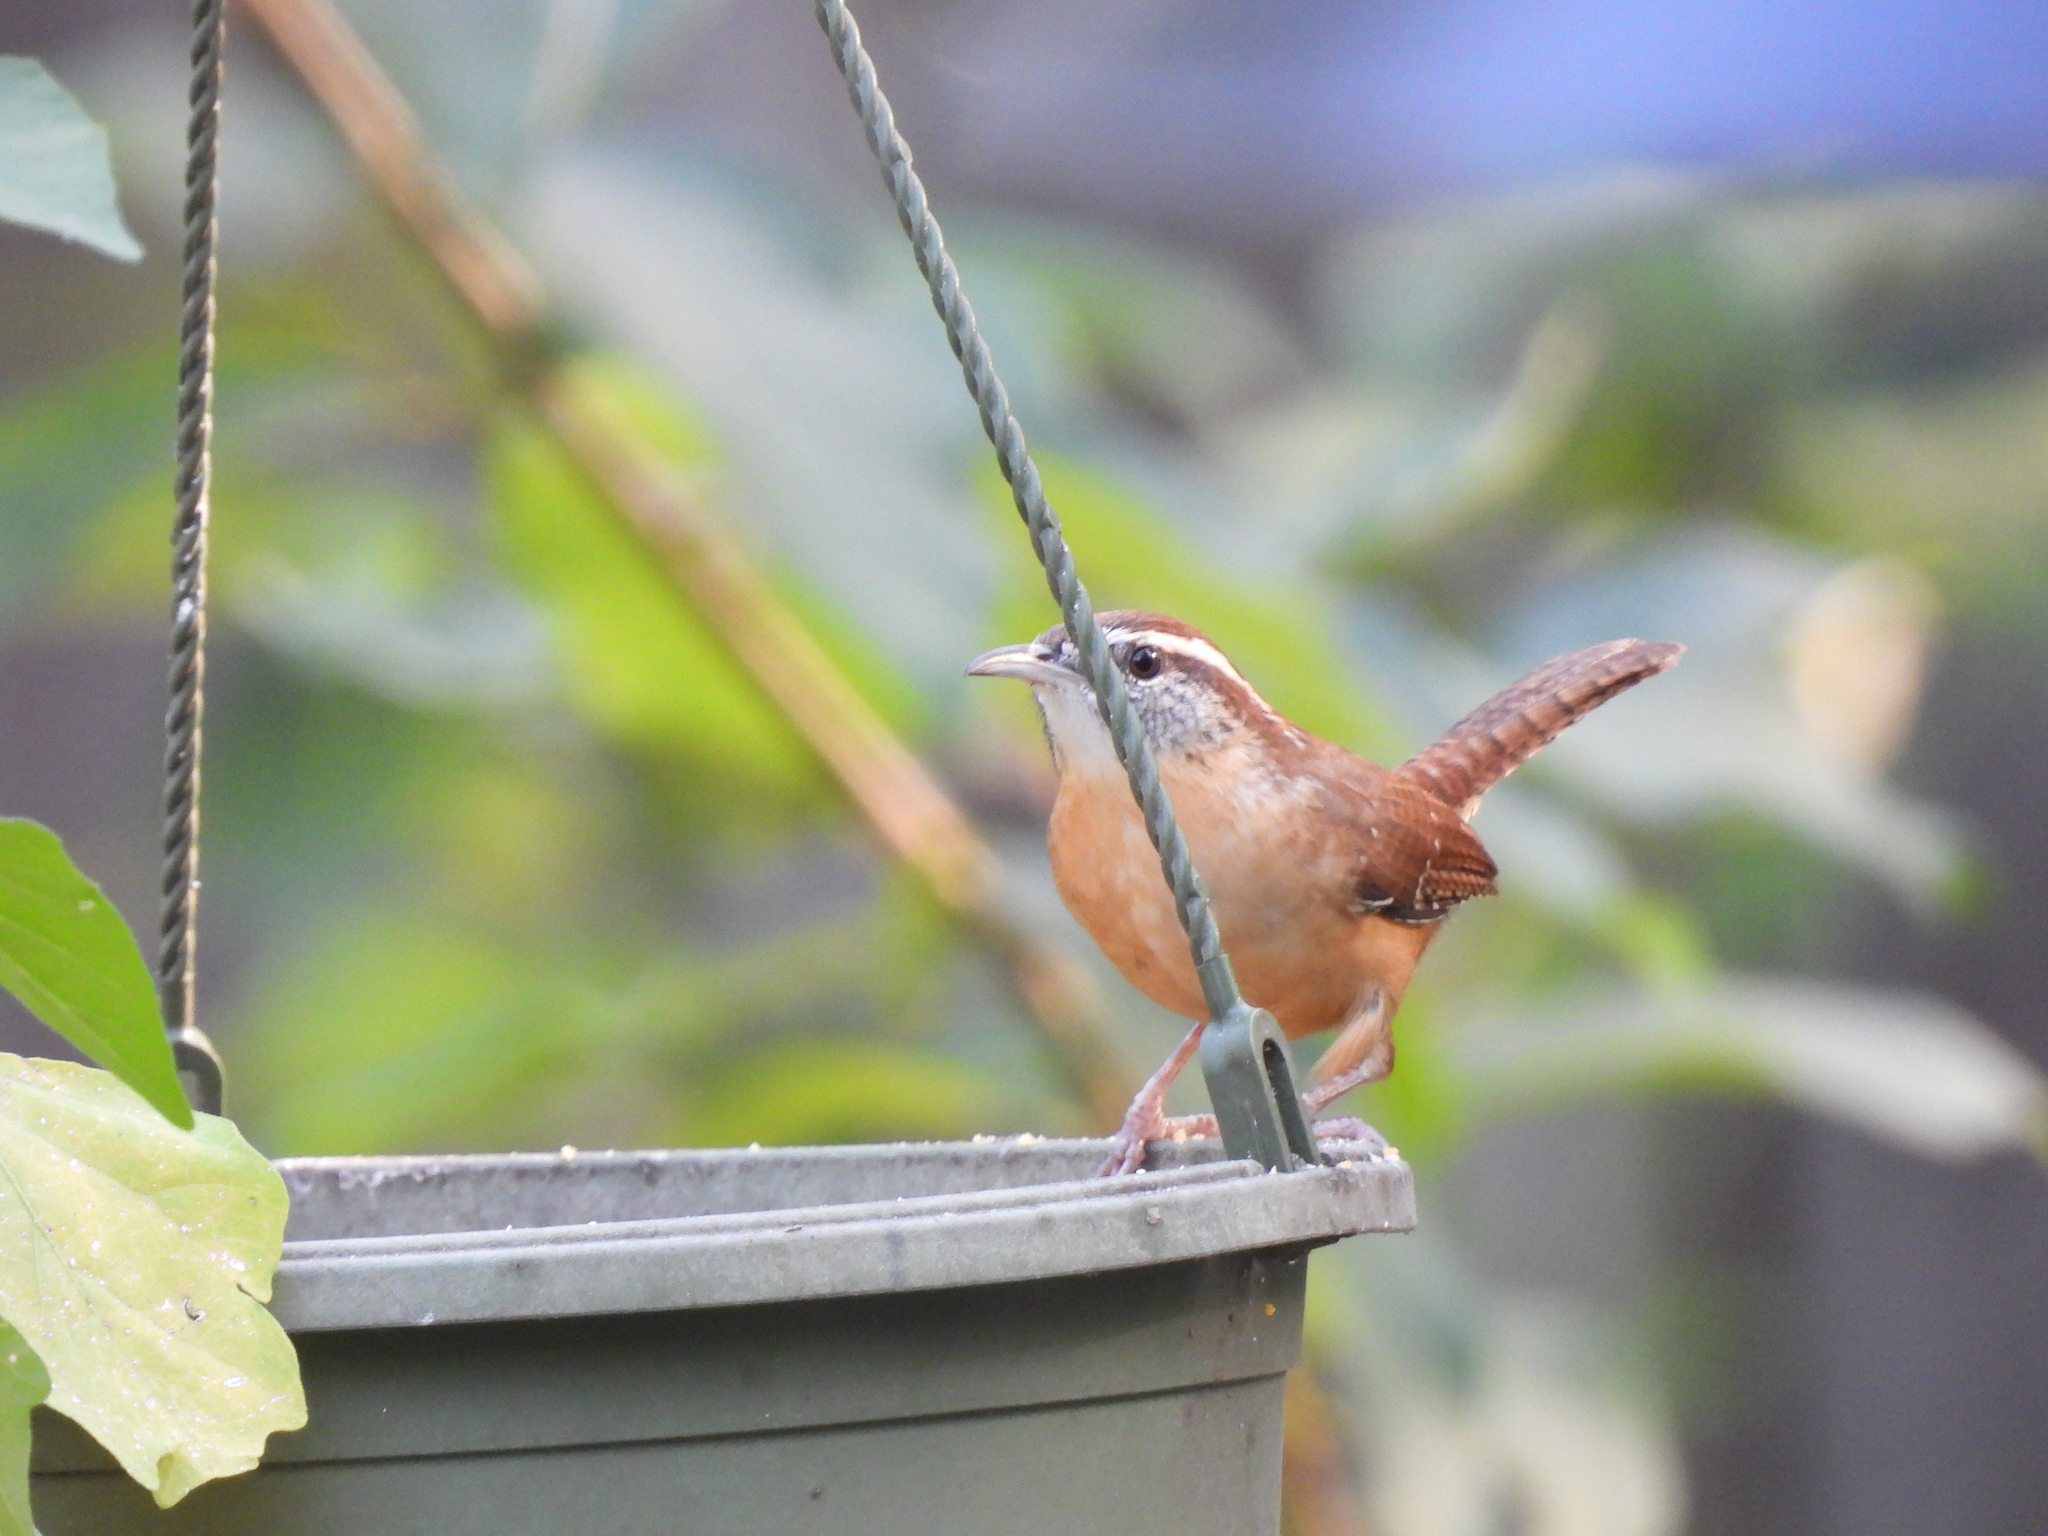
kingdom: Animalia
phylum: Chordata
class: Aves
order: Passeriformes
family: Troglodytidae
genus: Thryothorus
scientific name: Thryothorus ludovicianus
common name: Carolina wren
